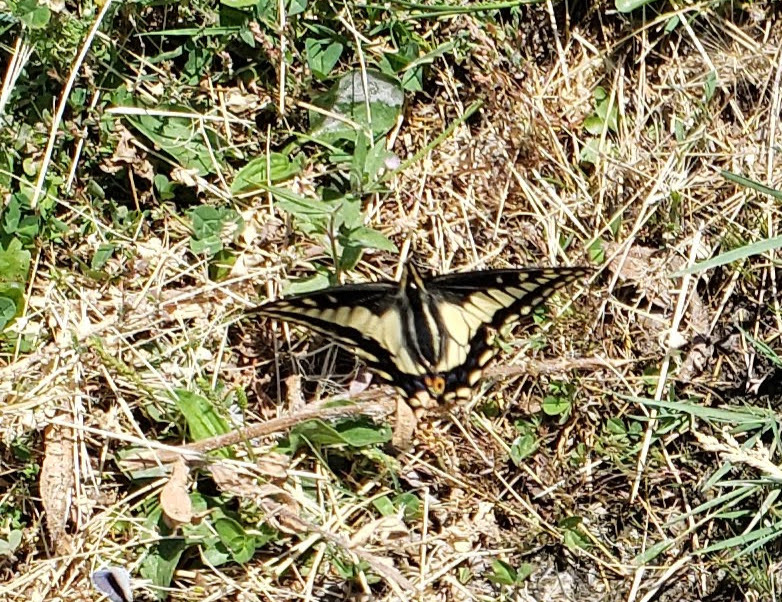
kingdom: Animalia
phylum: Arthropoda
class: Insecta
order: Lepidoptera
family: Papilionidae
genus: Papilio
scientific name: Papilio zelicaon
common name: Anise swallowtail
